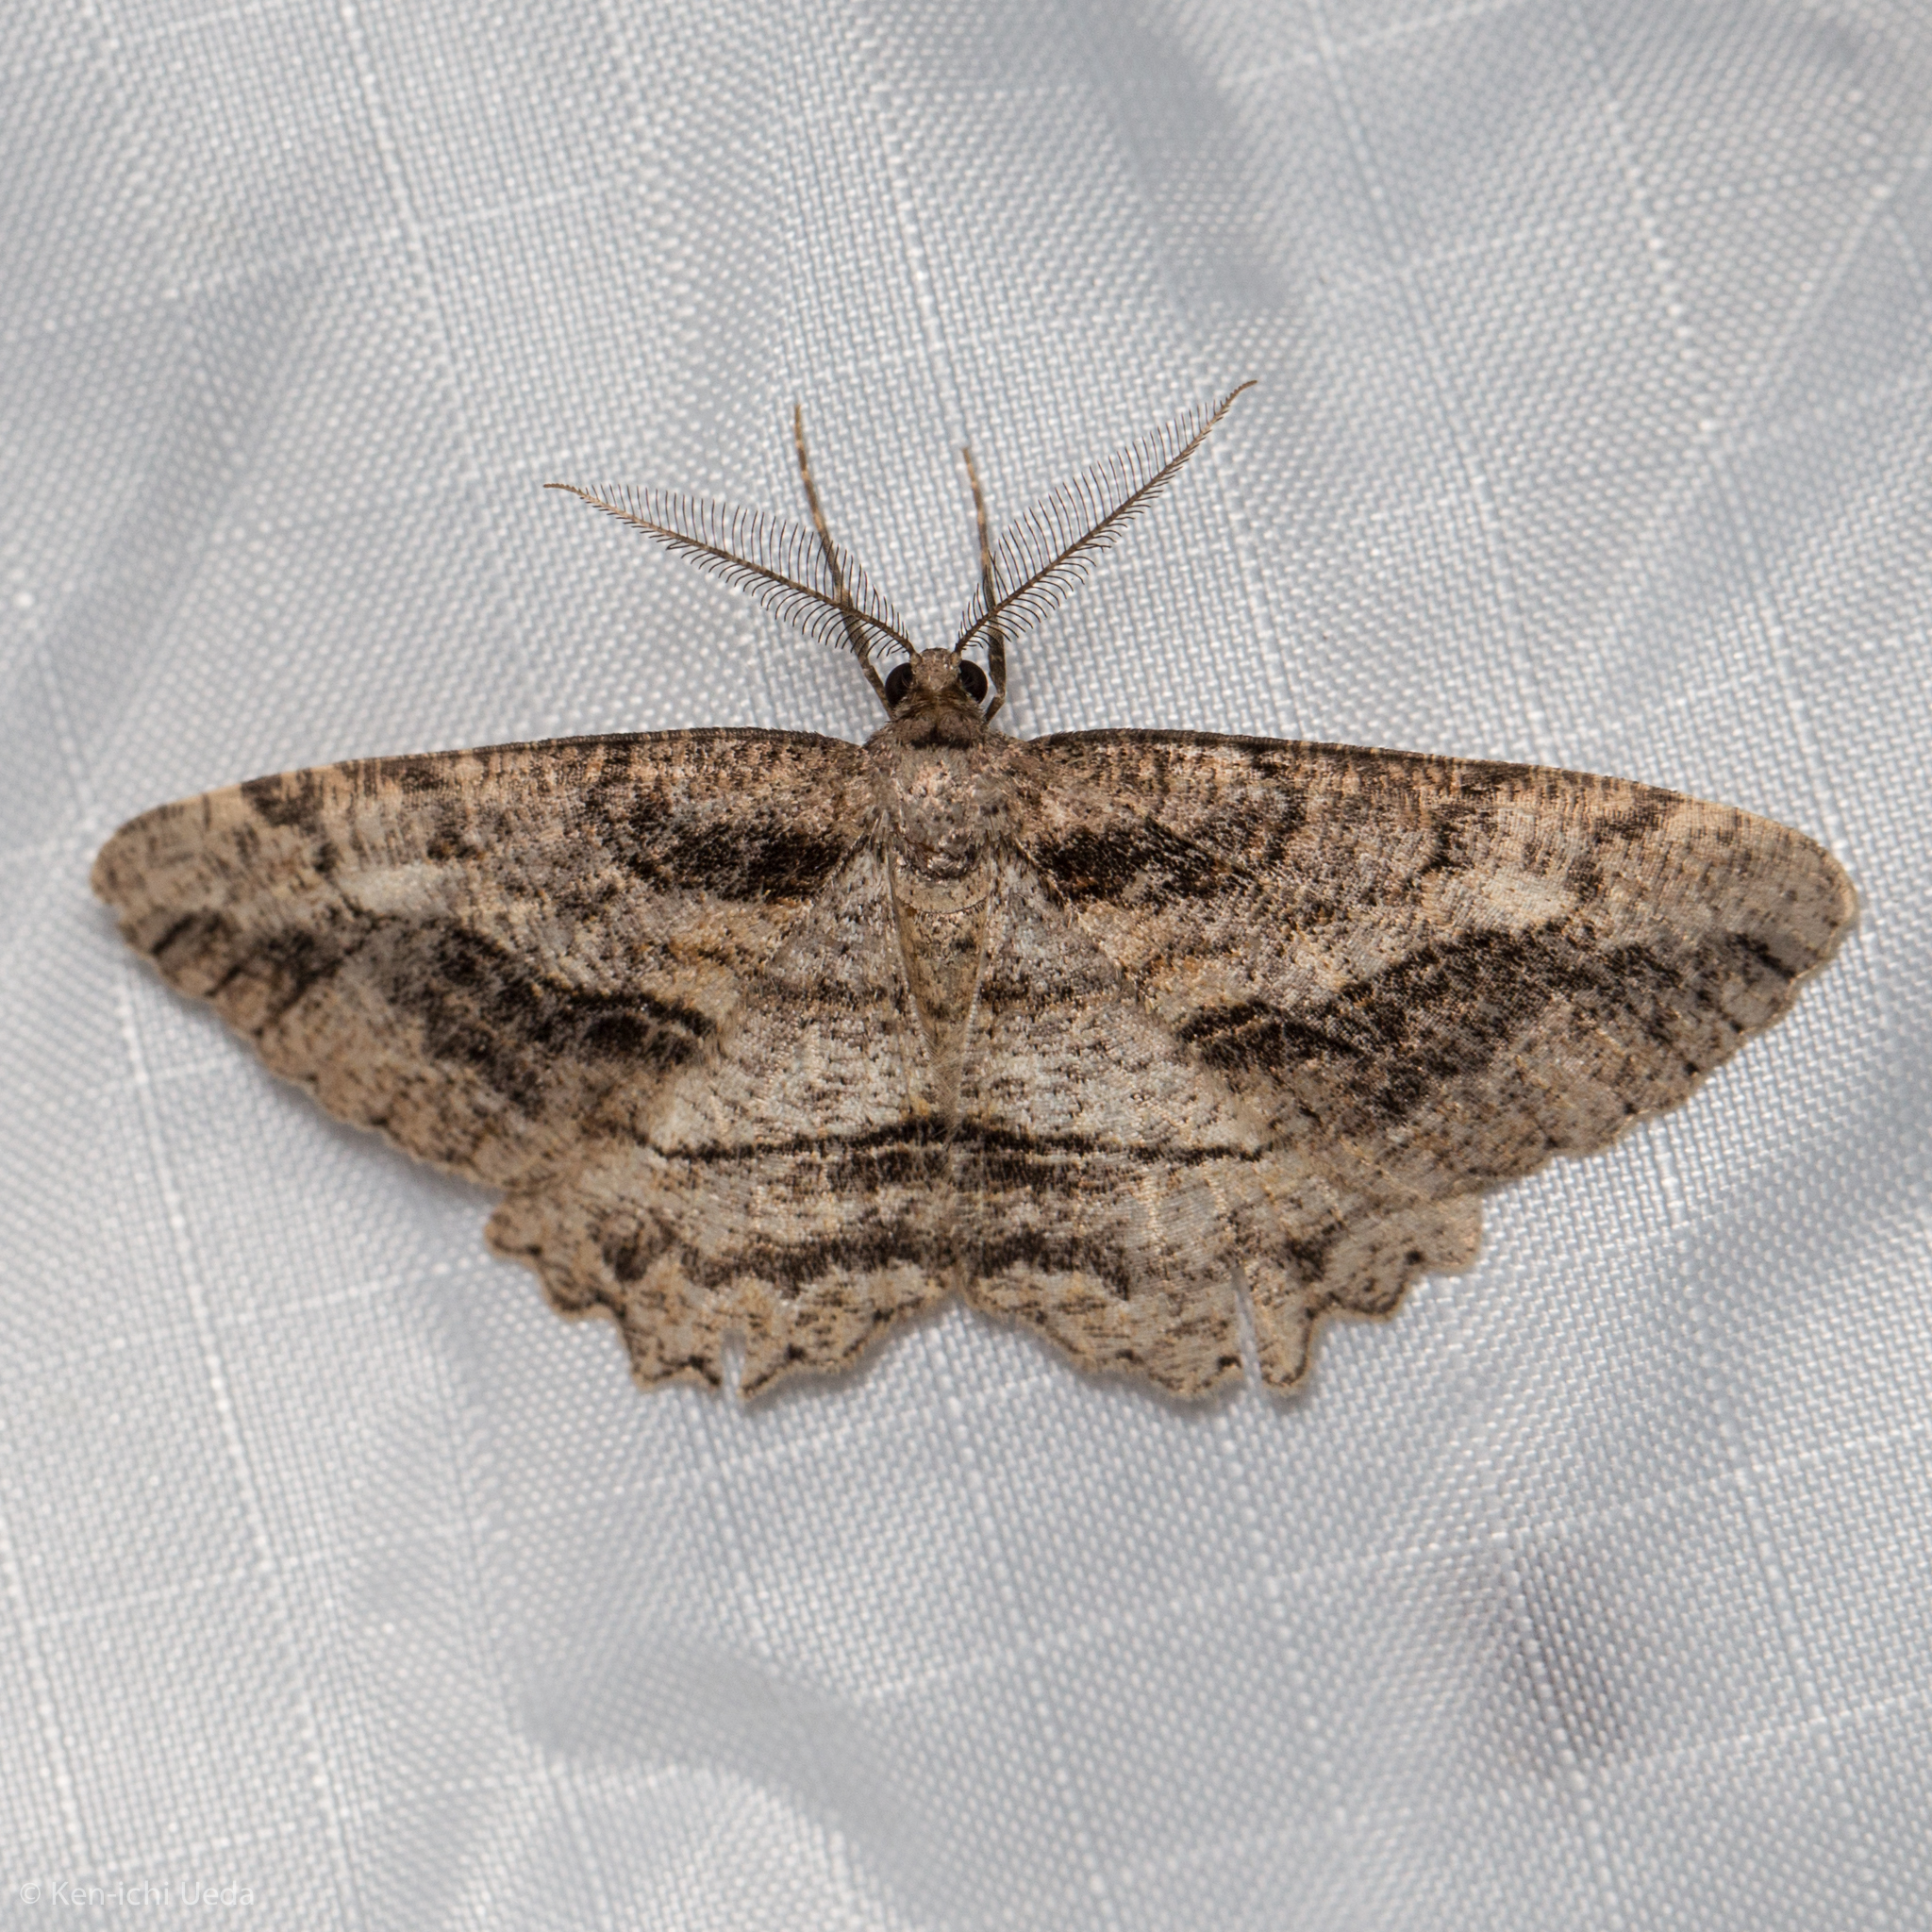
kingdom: Animalia
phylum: Arthropoda
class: Insecta
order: Lepidoptera
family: Geometridae
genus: Neoalcis
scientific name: Neoalcis californiaria
